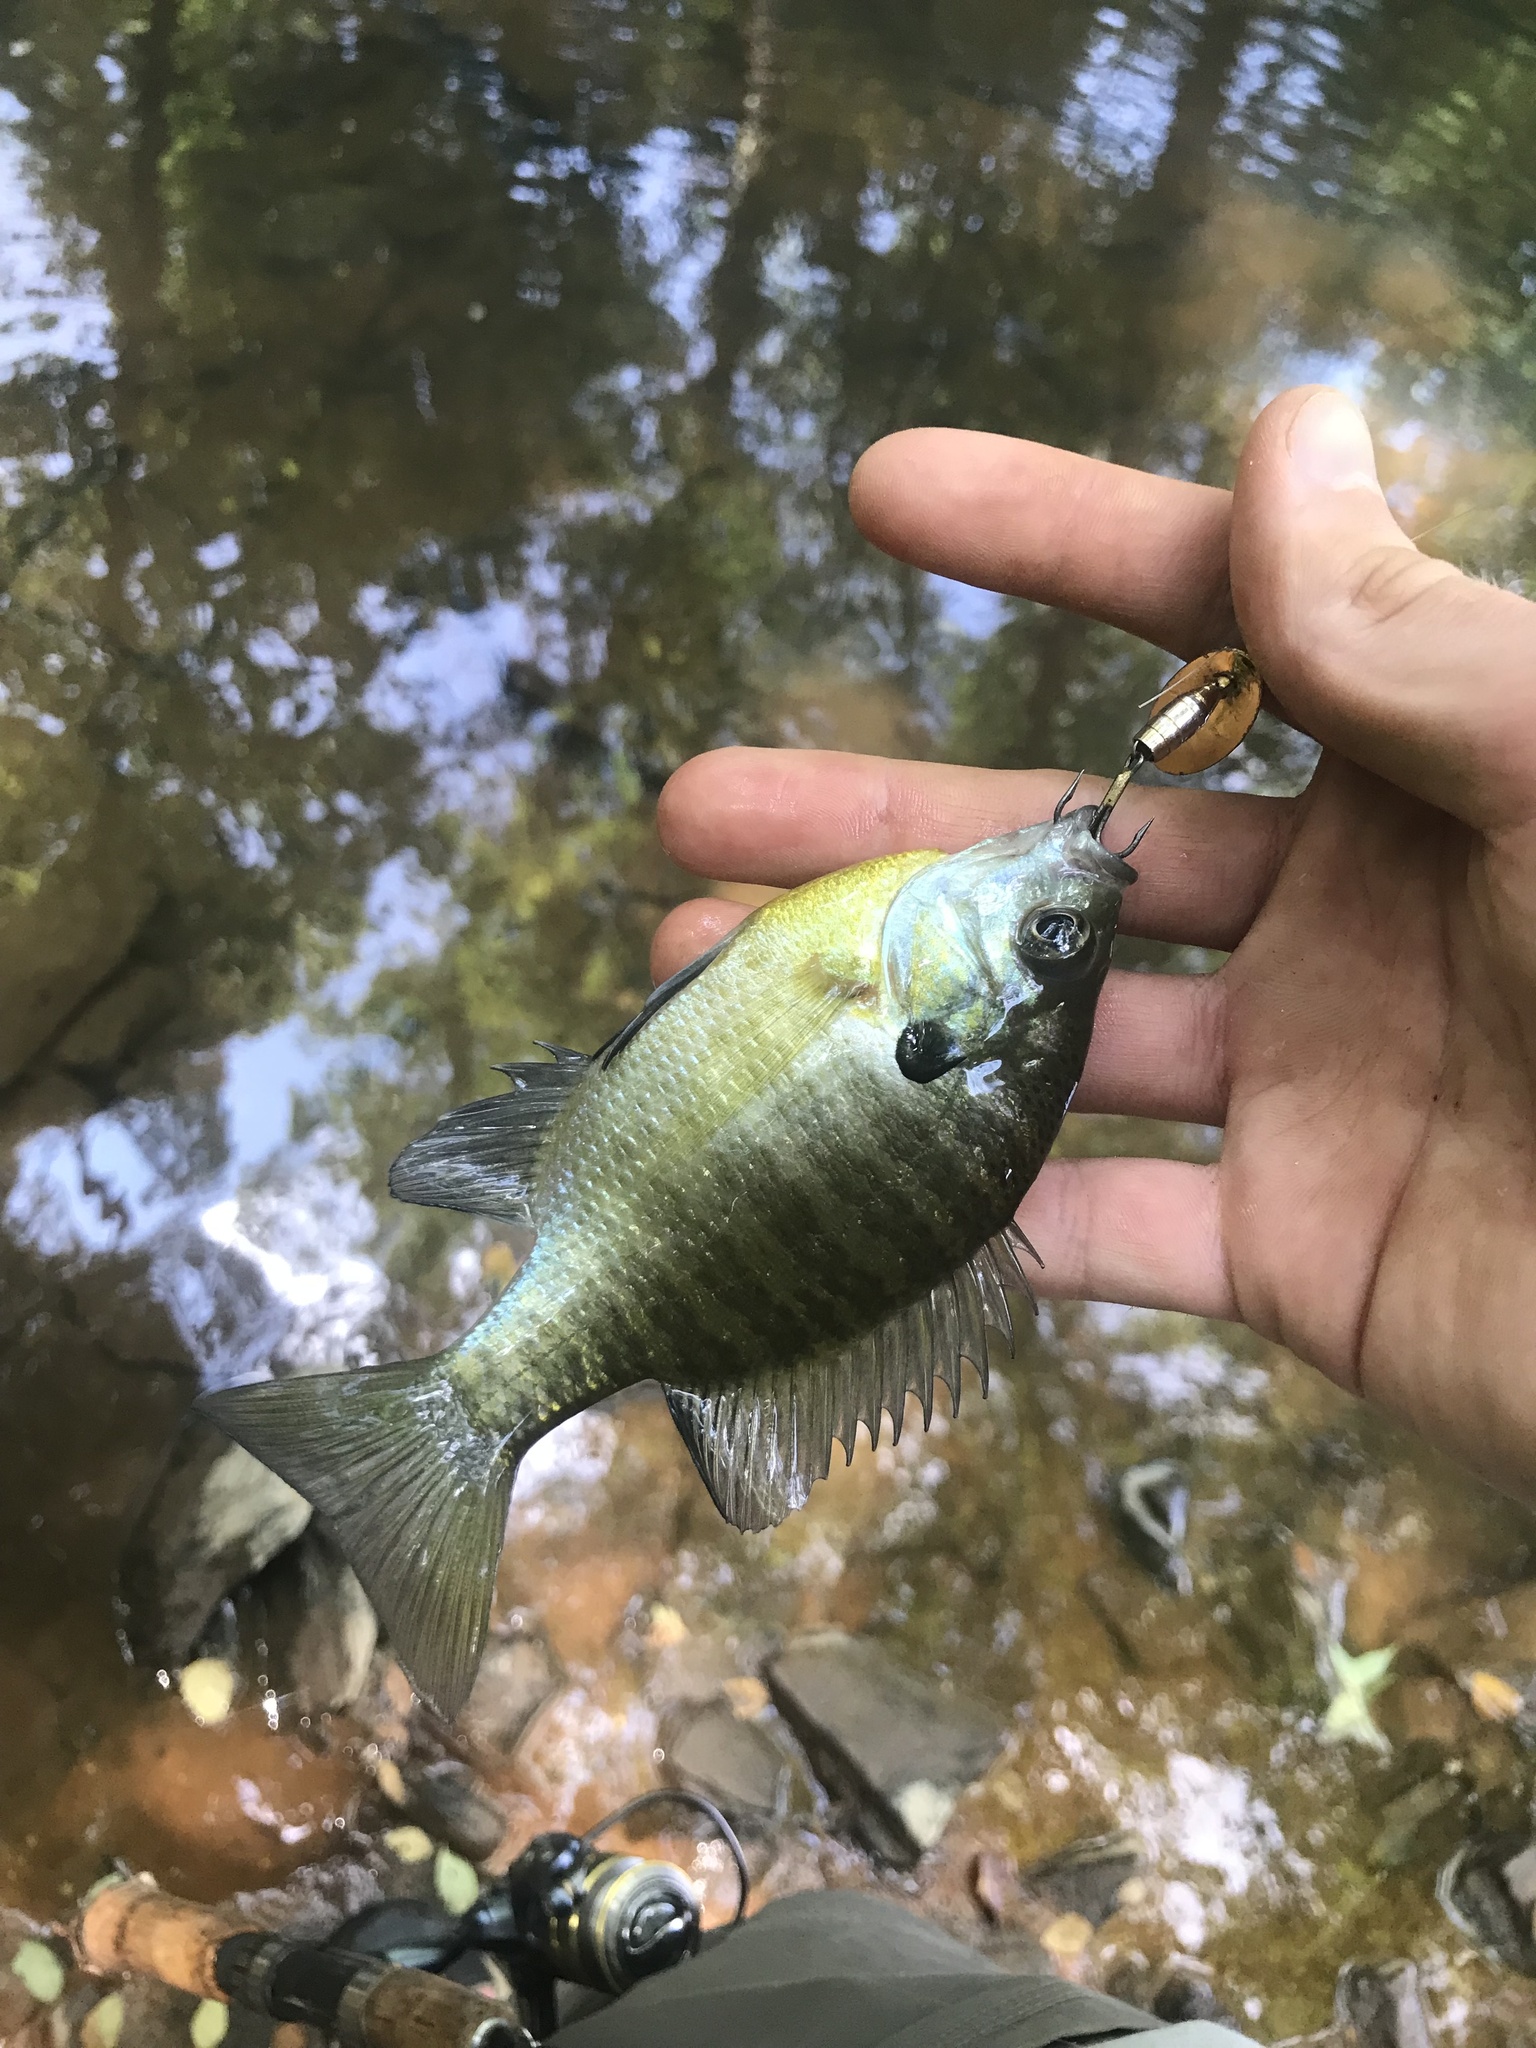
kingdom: Animalia
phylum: Chordata
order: Perciformes
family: Centrarchidae
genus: Lepomis
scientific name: Lepomis macrochirus
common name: Bluegill
